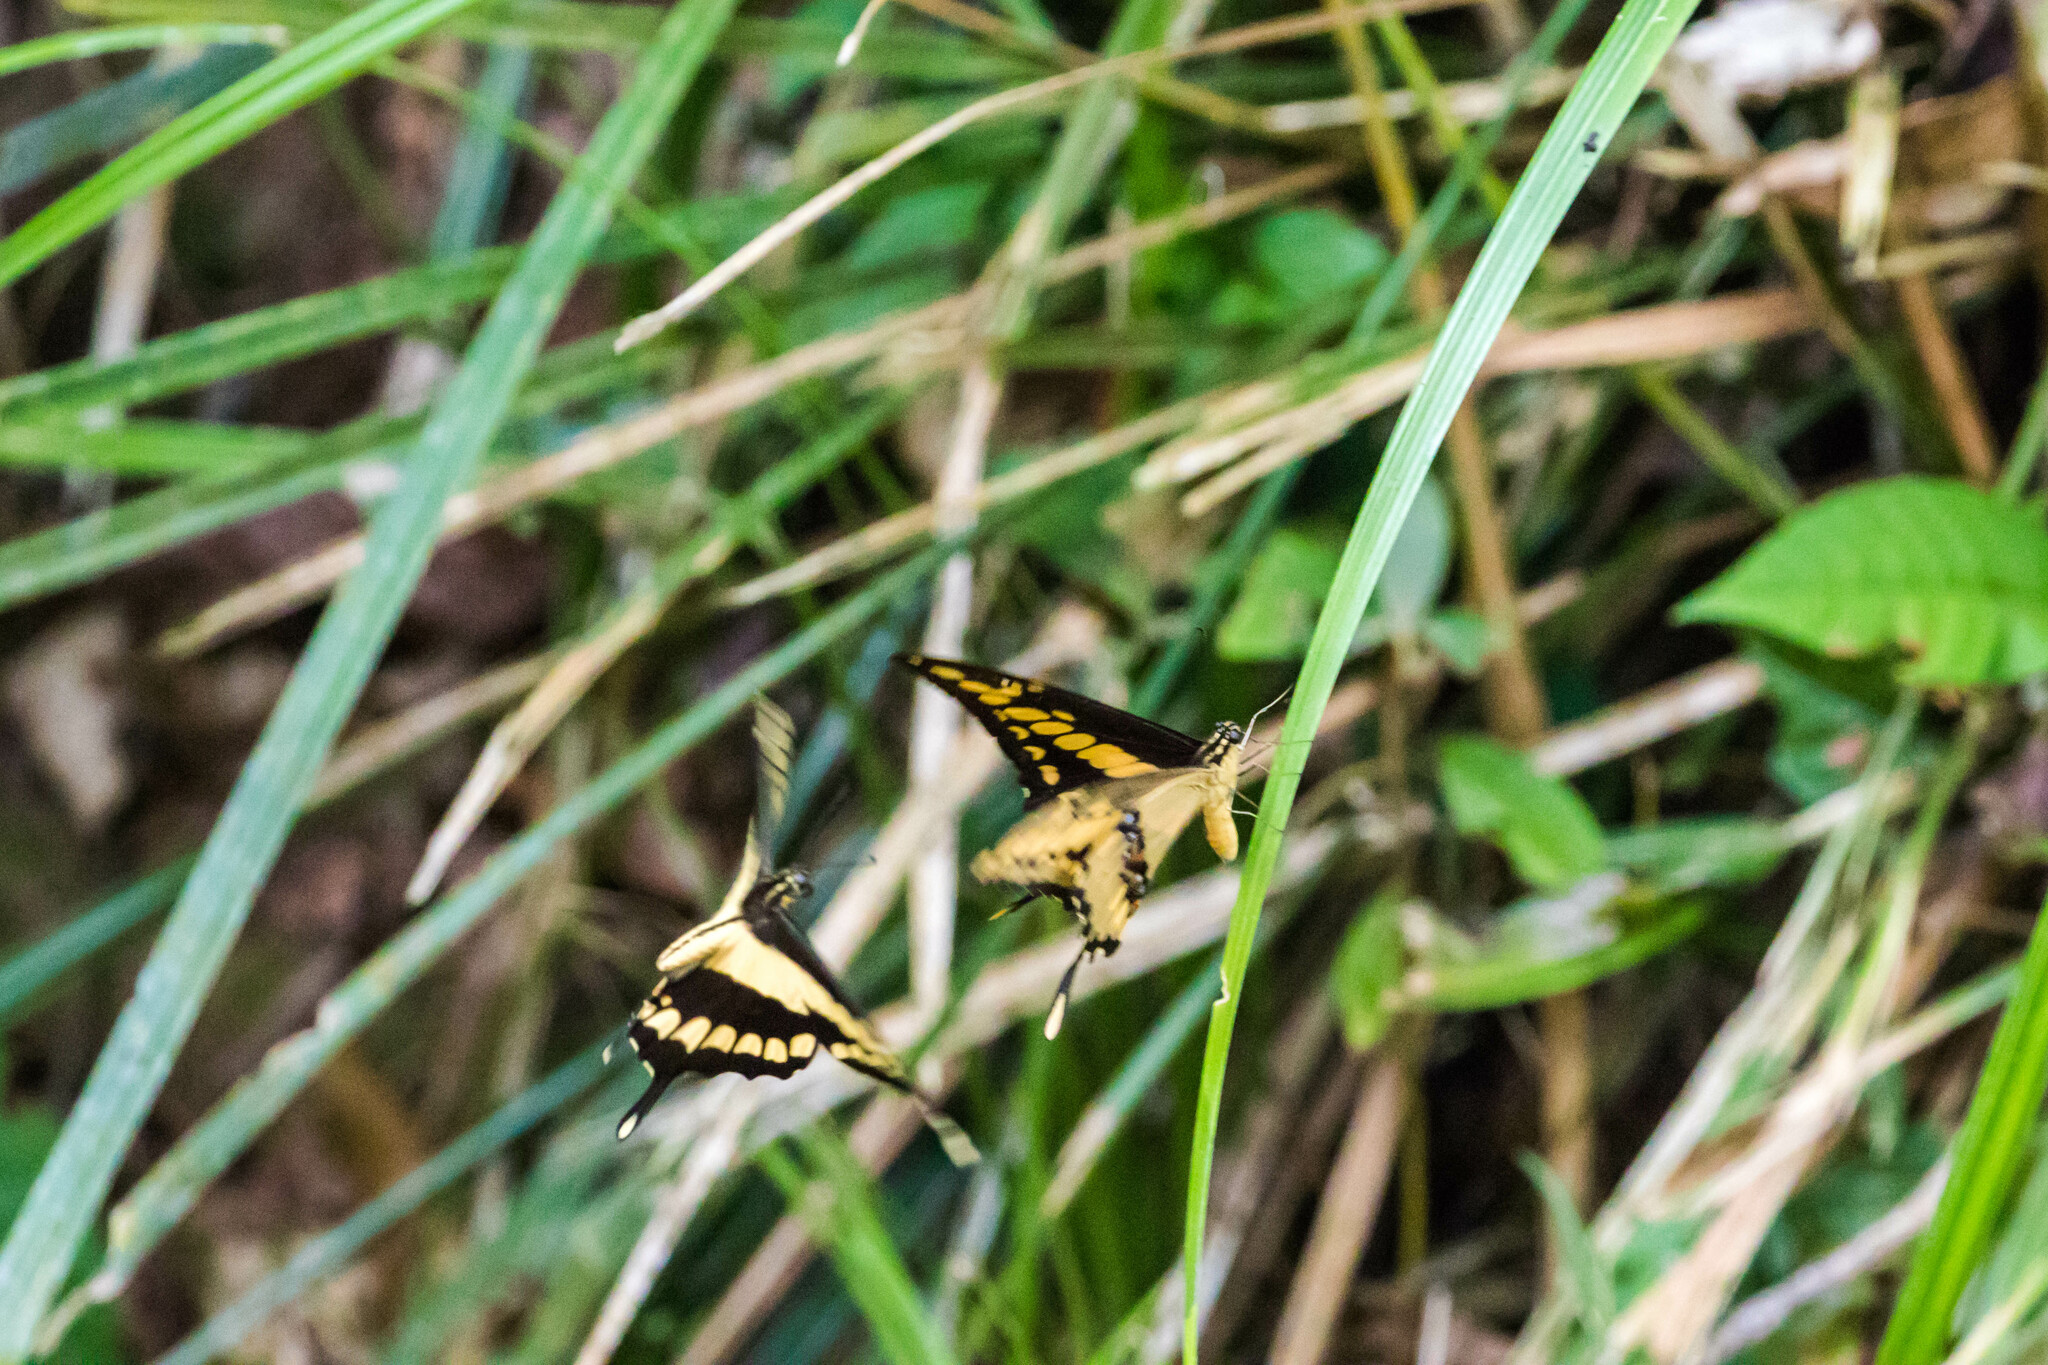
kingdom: Animalia
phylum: Arthropoda
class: Insecta
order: Lepidoptera
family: Papilionidae
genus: Papilio
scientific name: Papilio thoas
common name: King swallowtail
